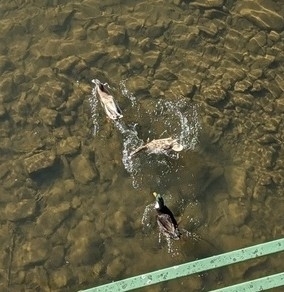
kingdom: Animalia
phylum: Chordata
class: Aves
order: Anseriformes
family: Anatidae
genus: Anas
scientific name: Anas platyrhynchos
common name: Mallard
